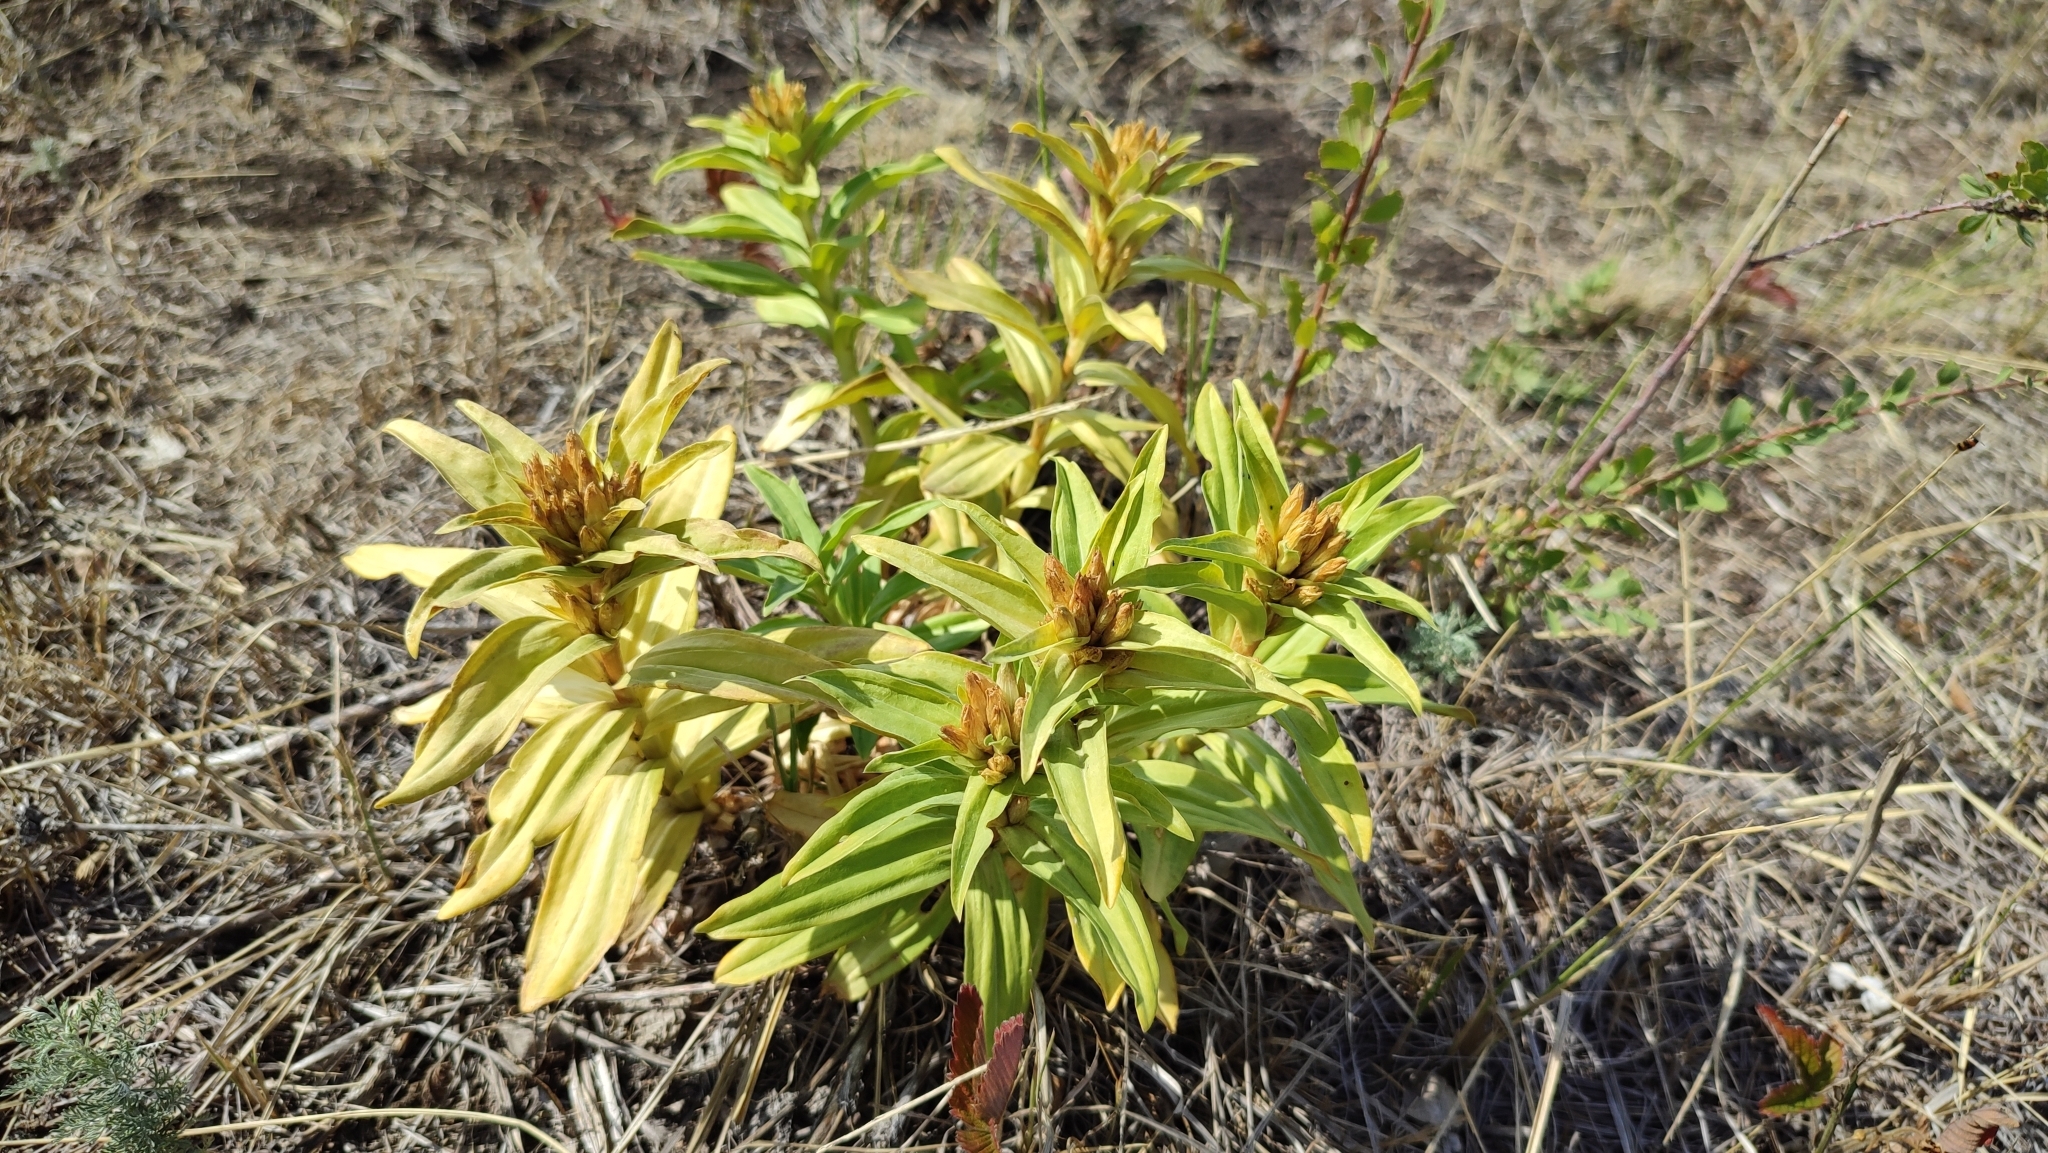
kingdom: Plantae
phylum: Tracheophyta
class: Magnoliopsida
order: Gentianales
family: Gentianaceae
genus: Gentiana
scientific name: Gentiana cruciata
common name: Cross gentian
